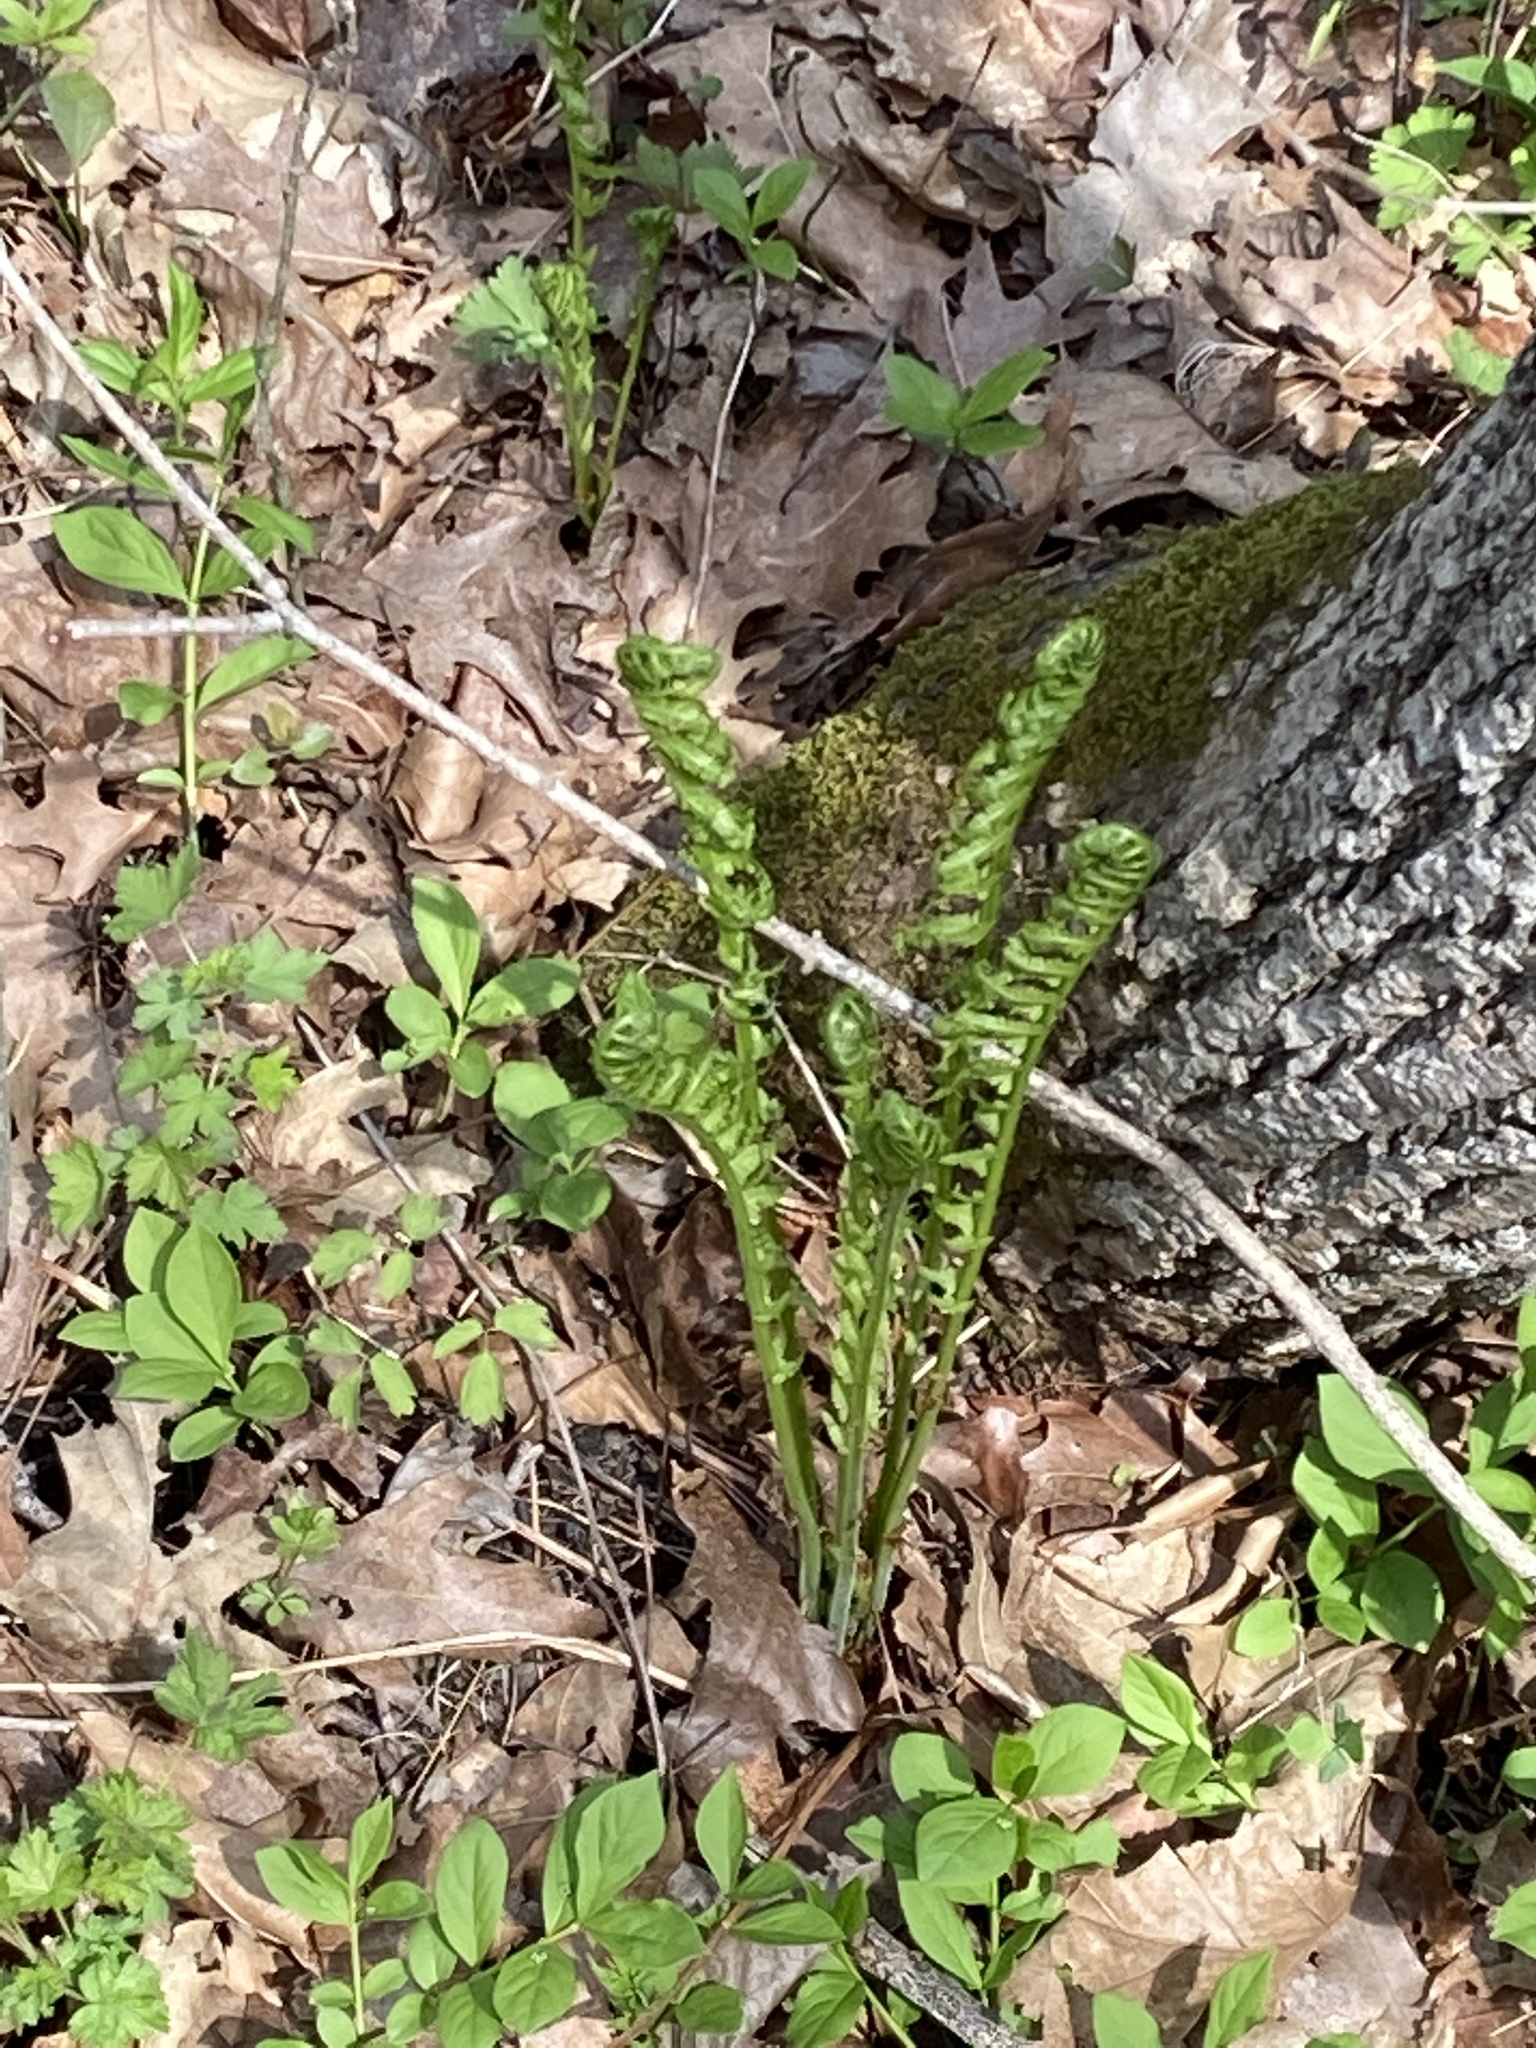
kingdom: Plantae
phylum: Tracheophyta
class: Polypodiopsida
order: Polypodiales
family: Onocleaceae
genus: Matteuccia
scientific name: Matteuccia struthiopteris
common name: Ostrich fern
